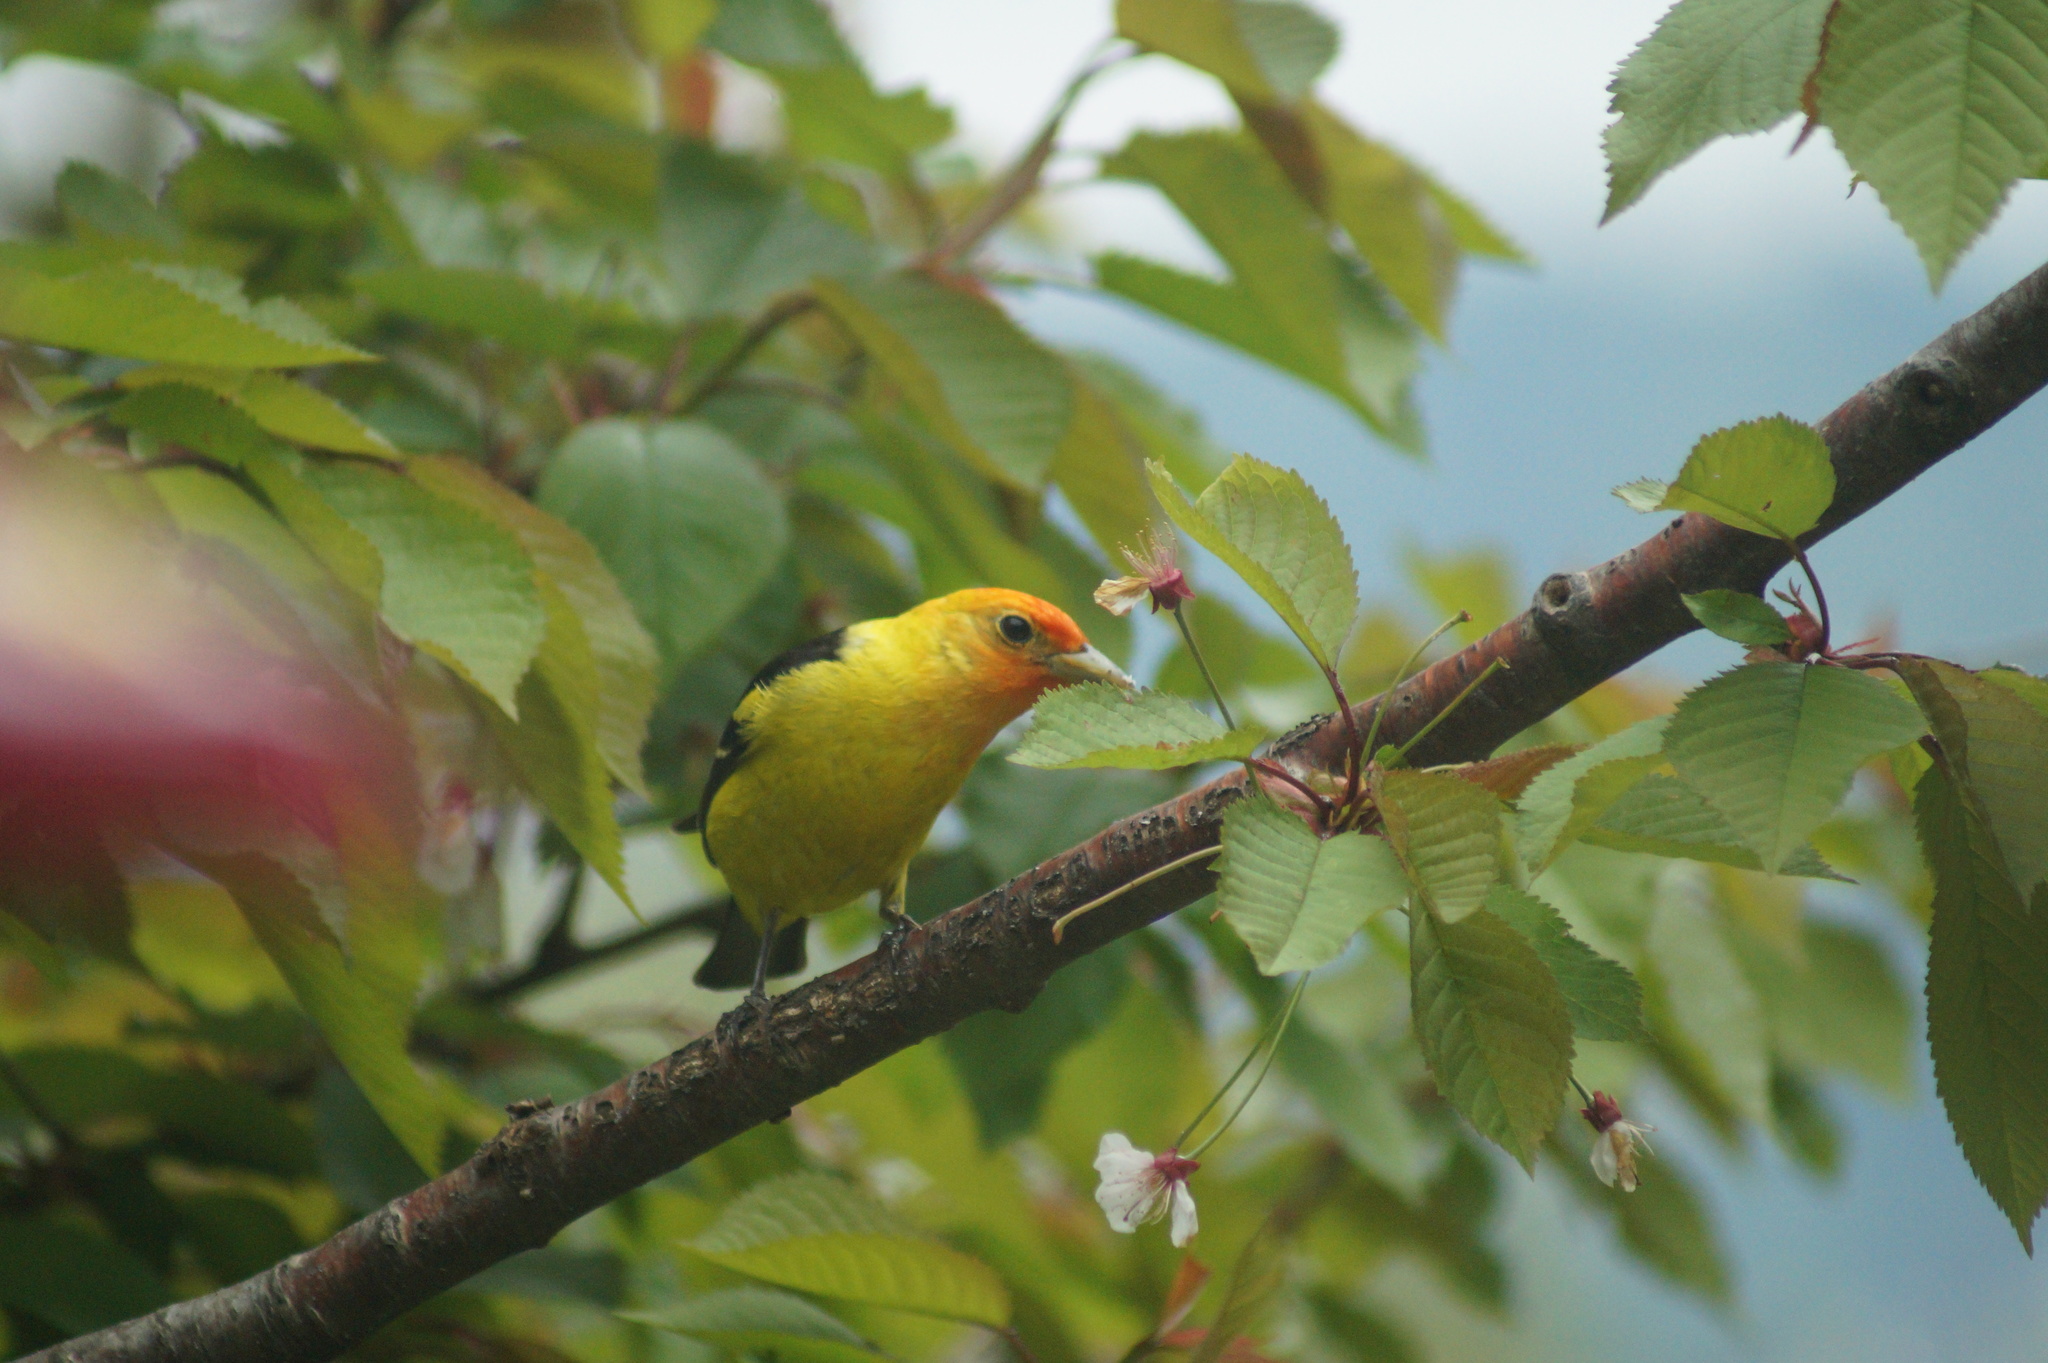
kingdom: Animalia
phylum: Chordata
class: Aves
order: Passeriformes
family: Cardinalidae
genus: Piranga
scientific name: Piranga ludoviciana
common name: Western tanager
